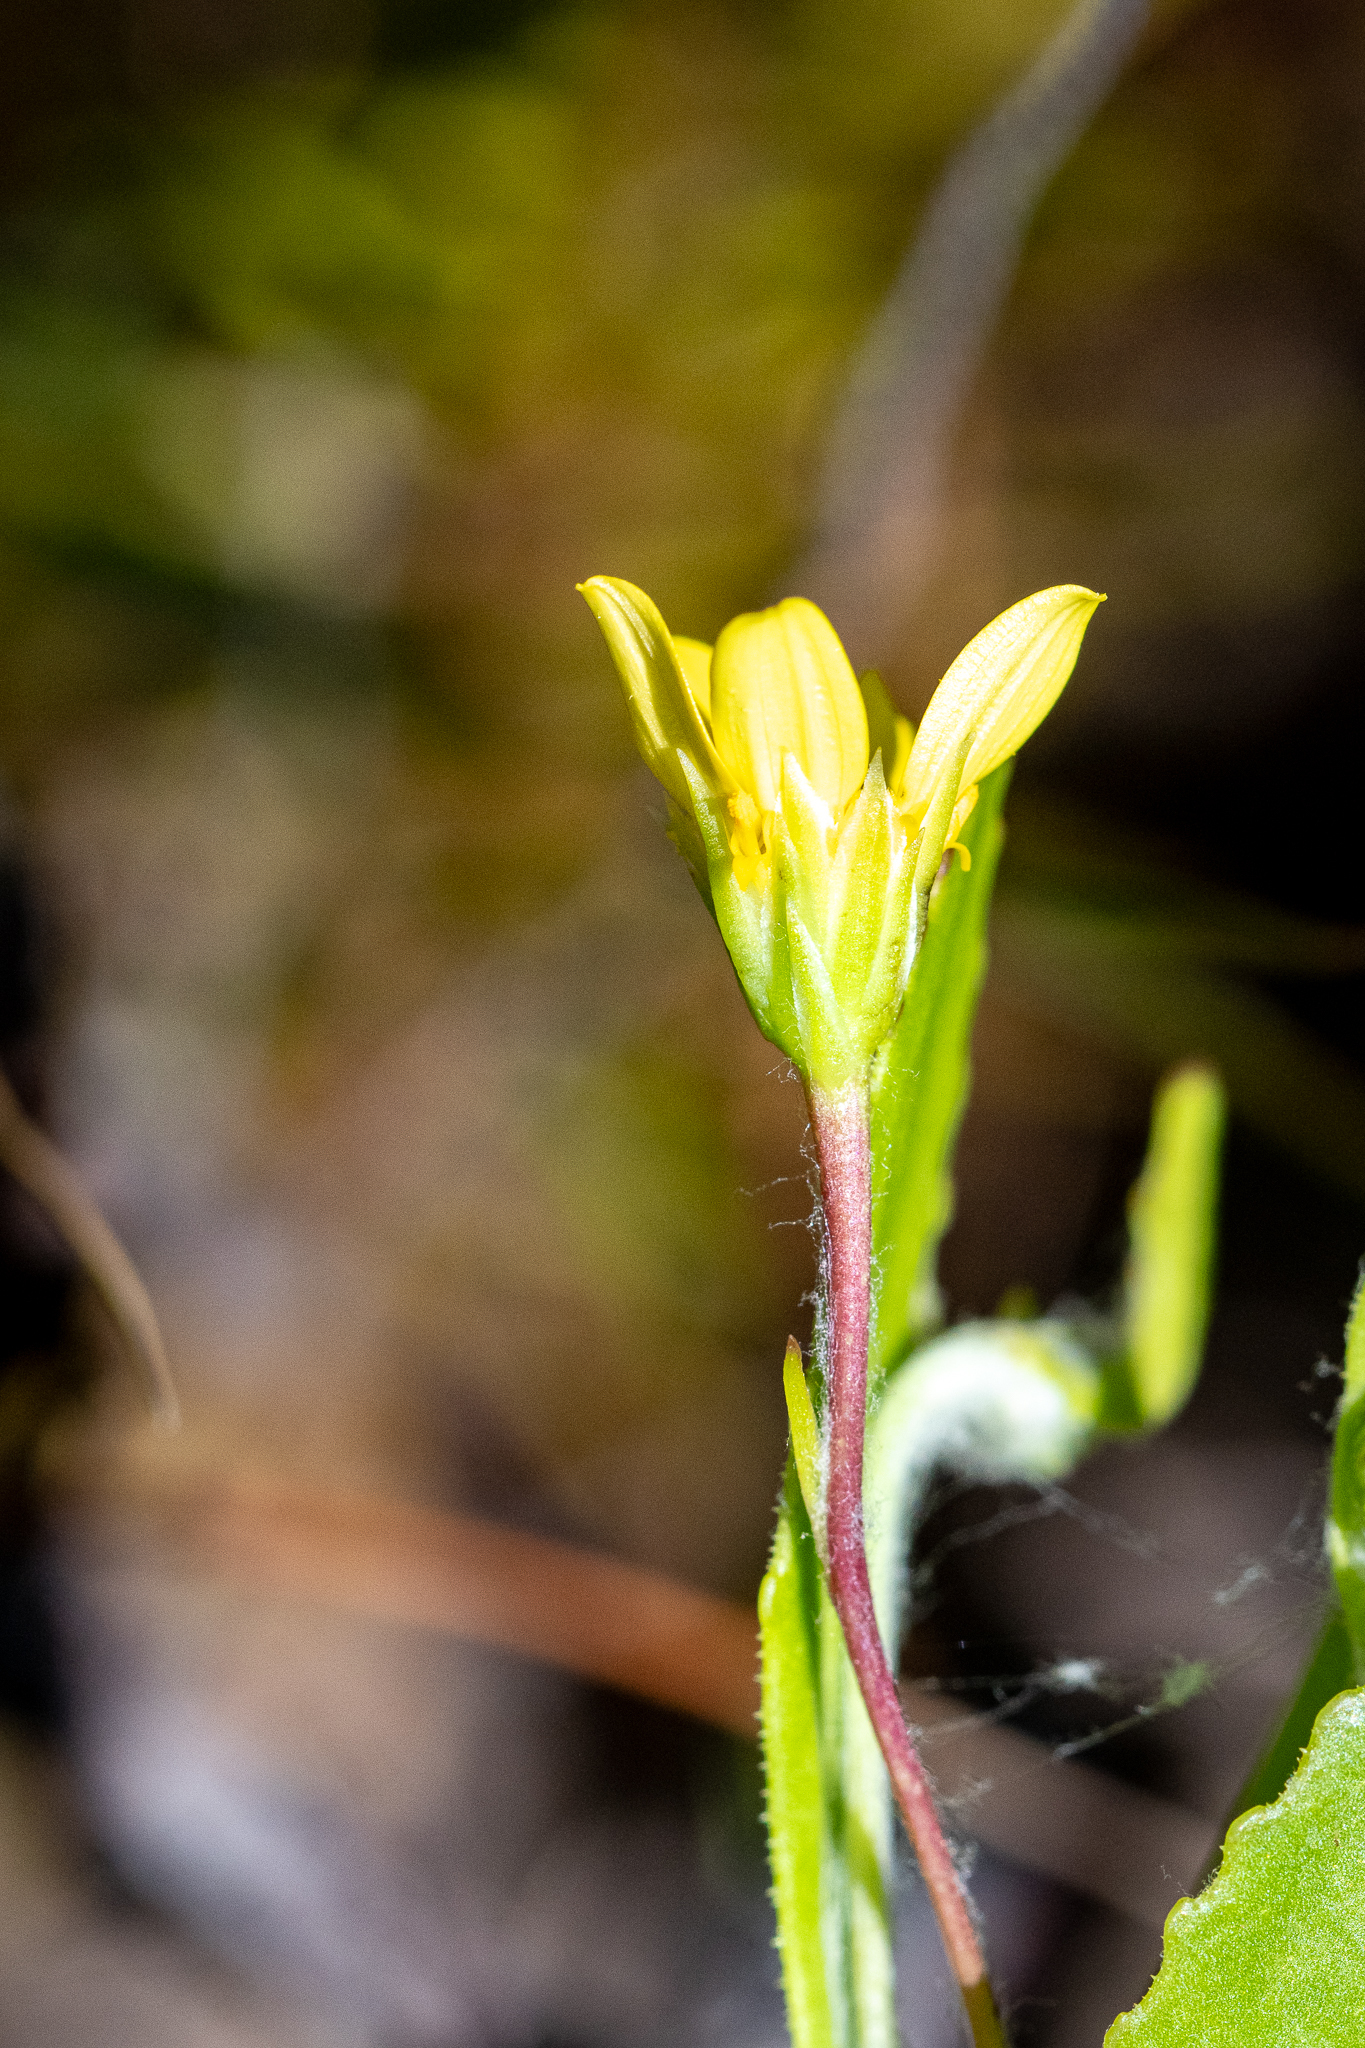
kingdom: Plantae
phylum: Tracheophyta
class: Magnoliopsida
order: Asterales
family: Asteraceae
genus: Osteospermum
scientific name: Osteospermum ciliatum
